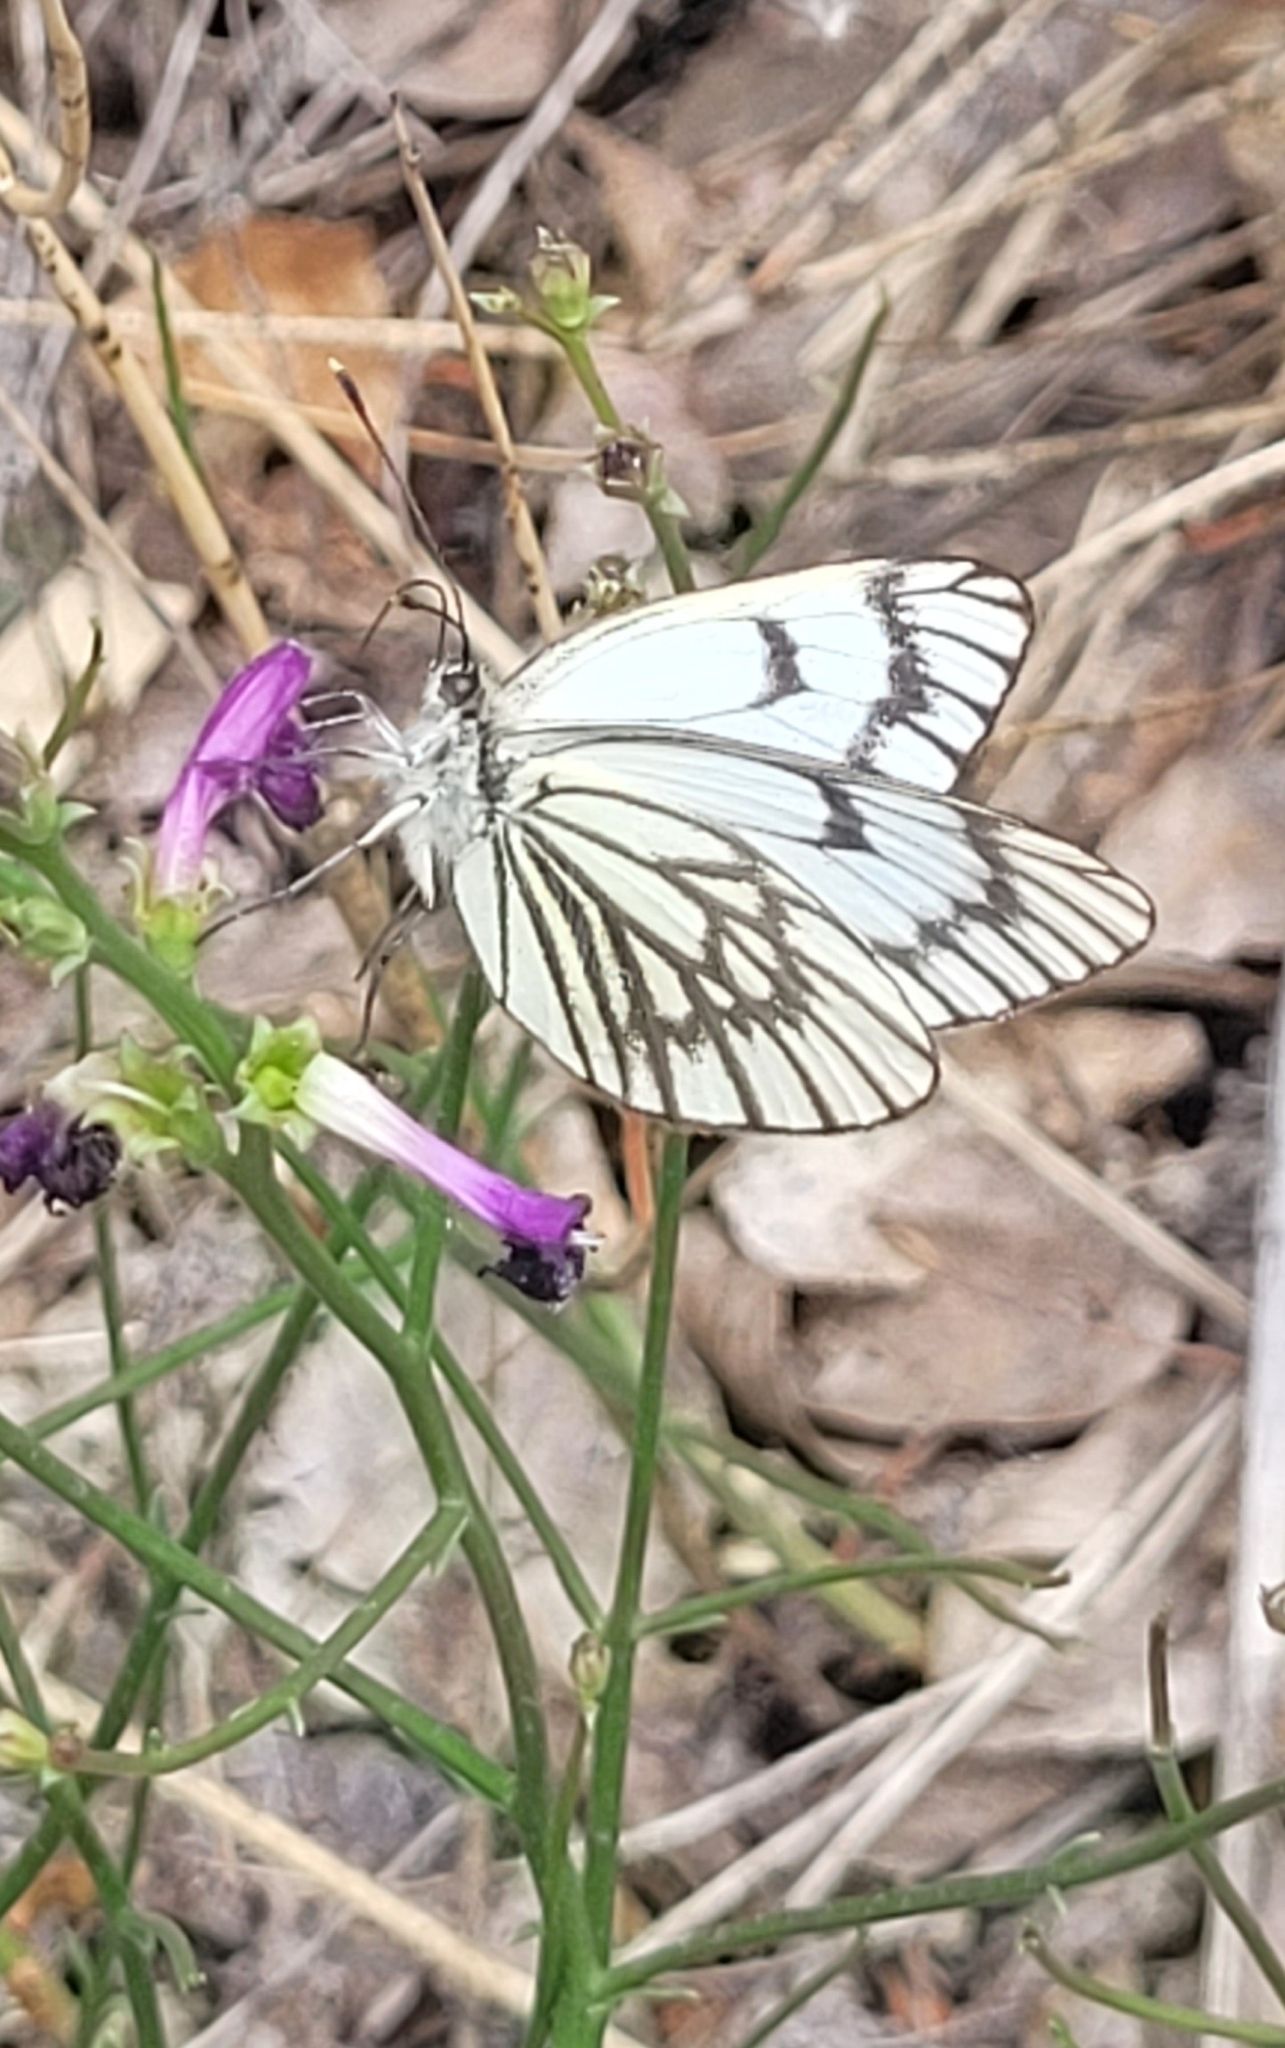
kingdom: Animalia
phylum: Arthropoda
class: Insecta
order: Lepidoptera
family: Pieridae
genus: Aporia
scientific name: Aporia leucodice
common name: Himalayan blackvein
